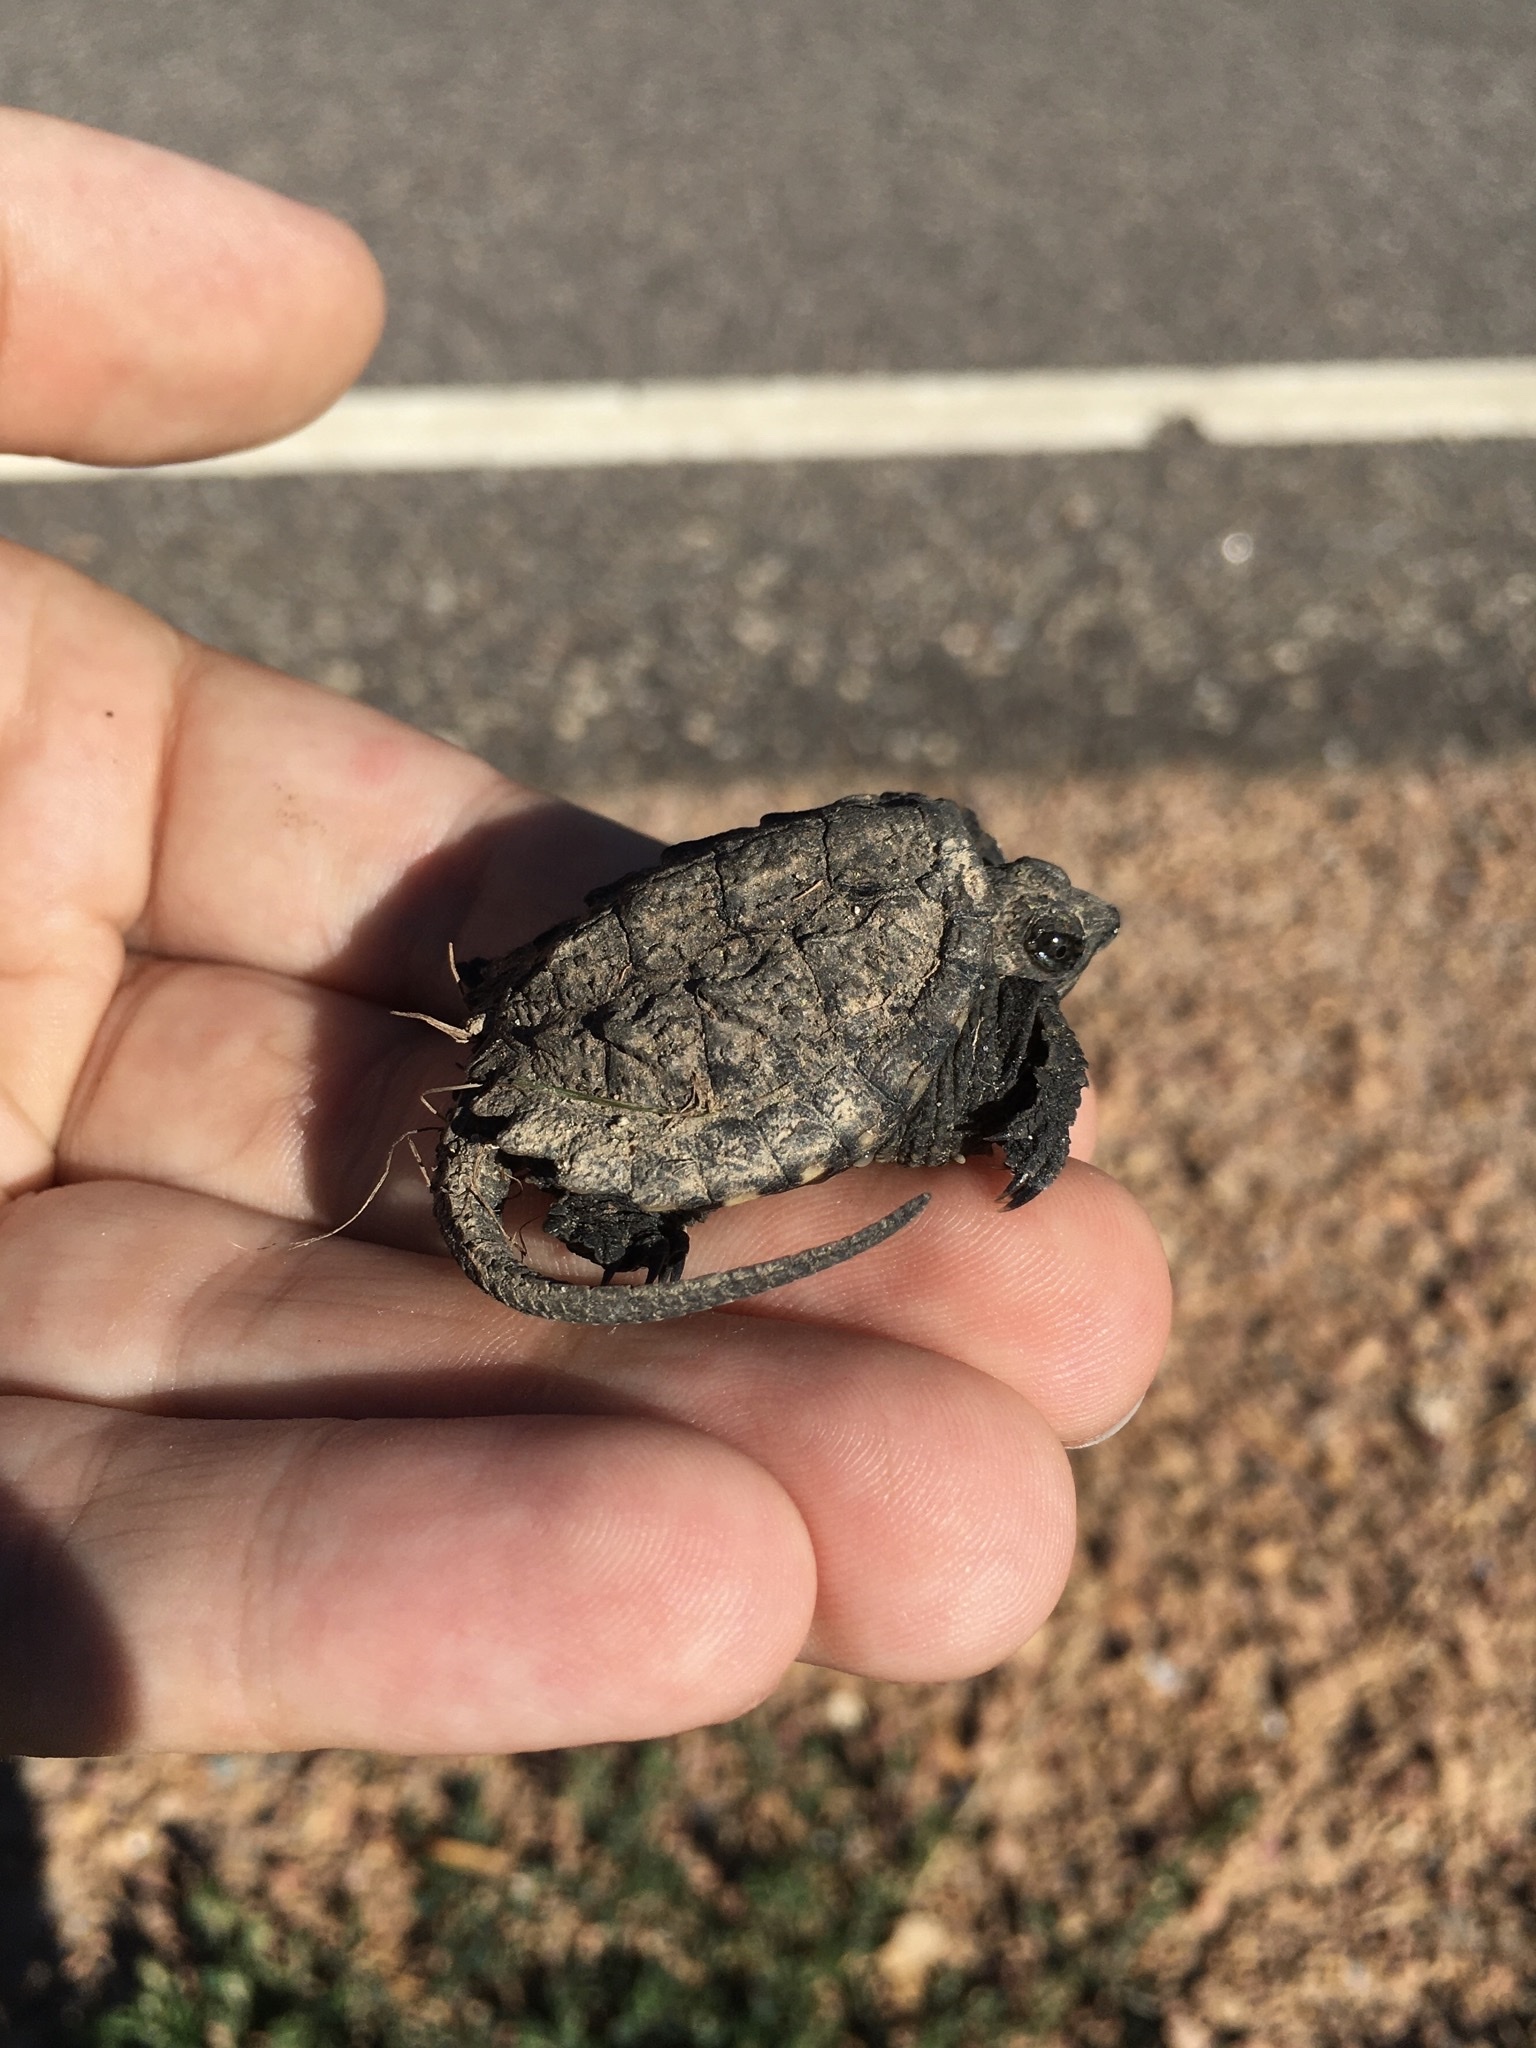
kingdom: Animalia
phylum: Chordata
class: Testudines
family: Chelydridae
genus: Chelydra
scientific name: Chelydra serpentina
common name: Common snapping turtle
